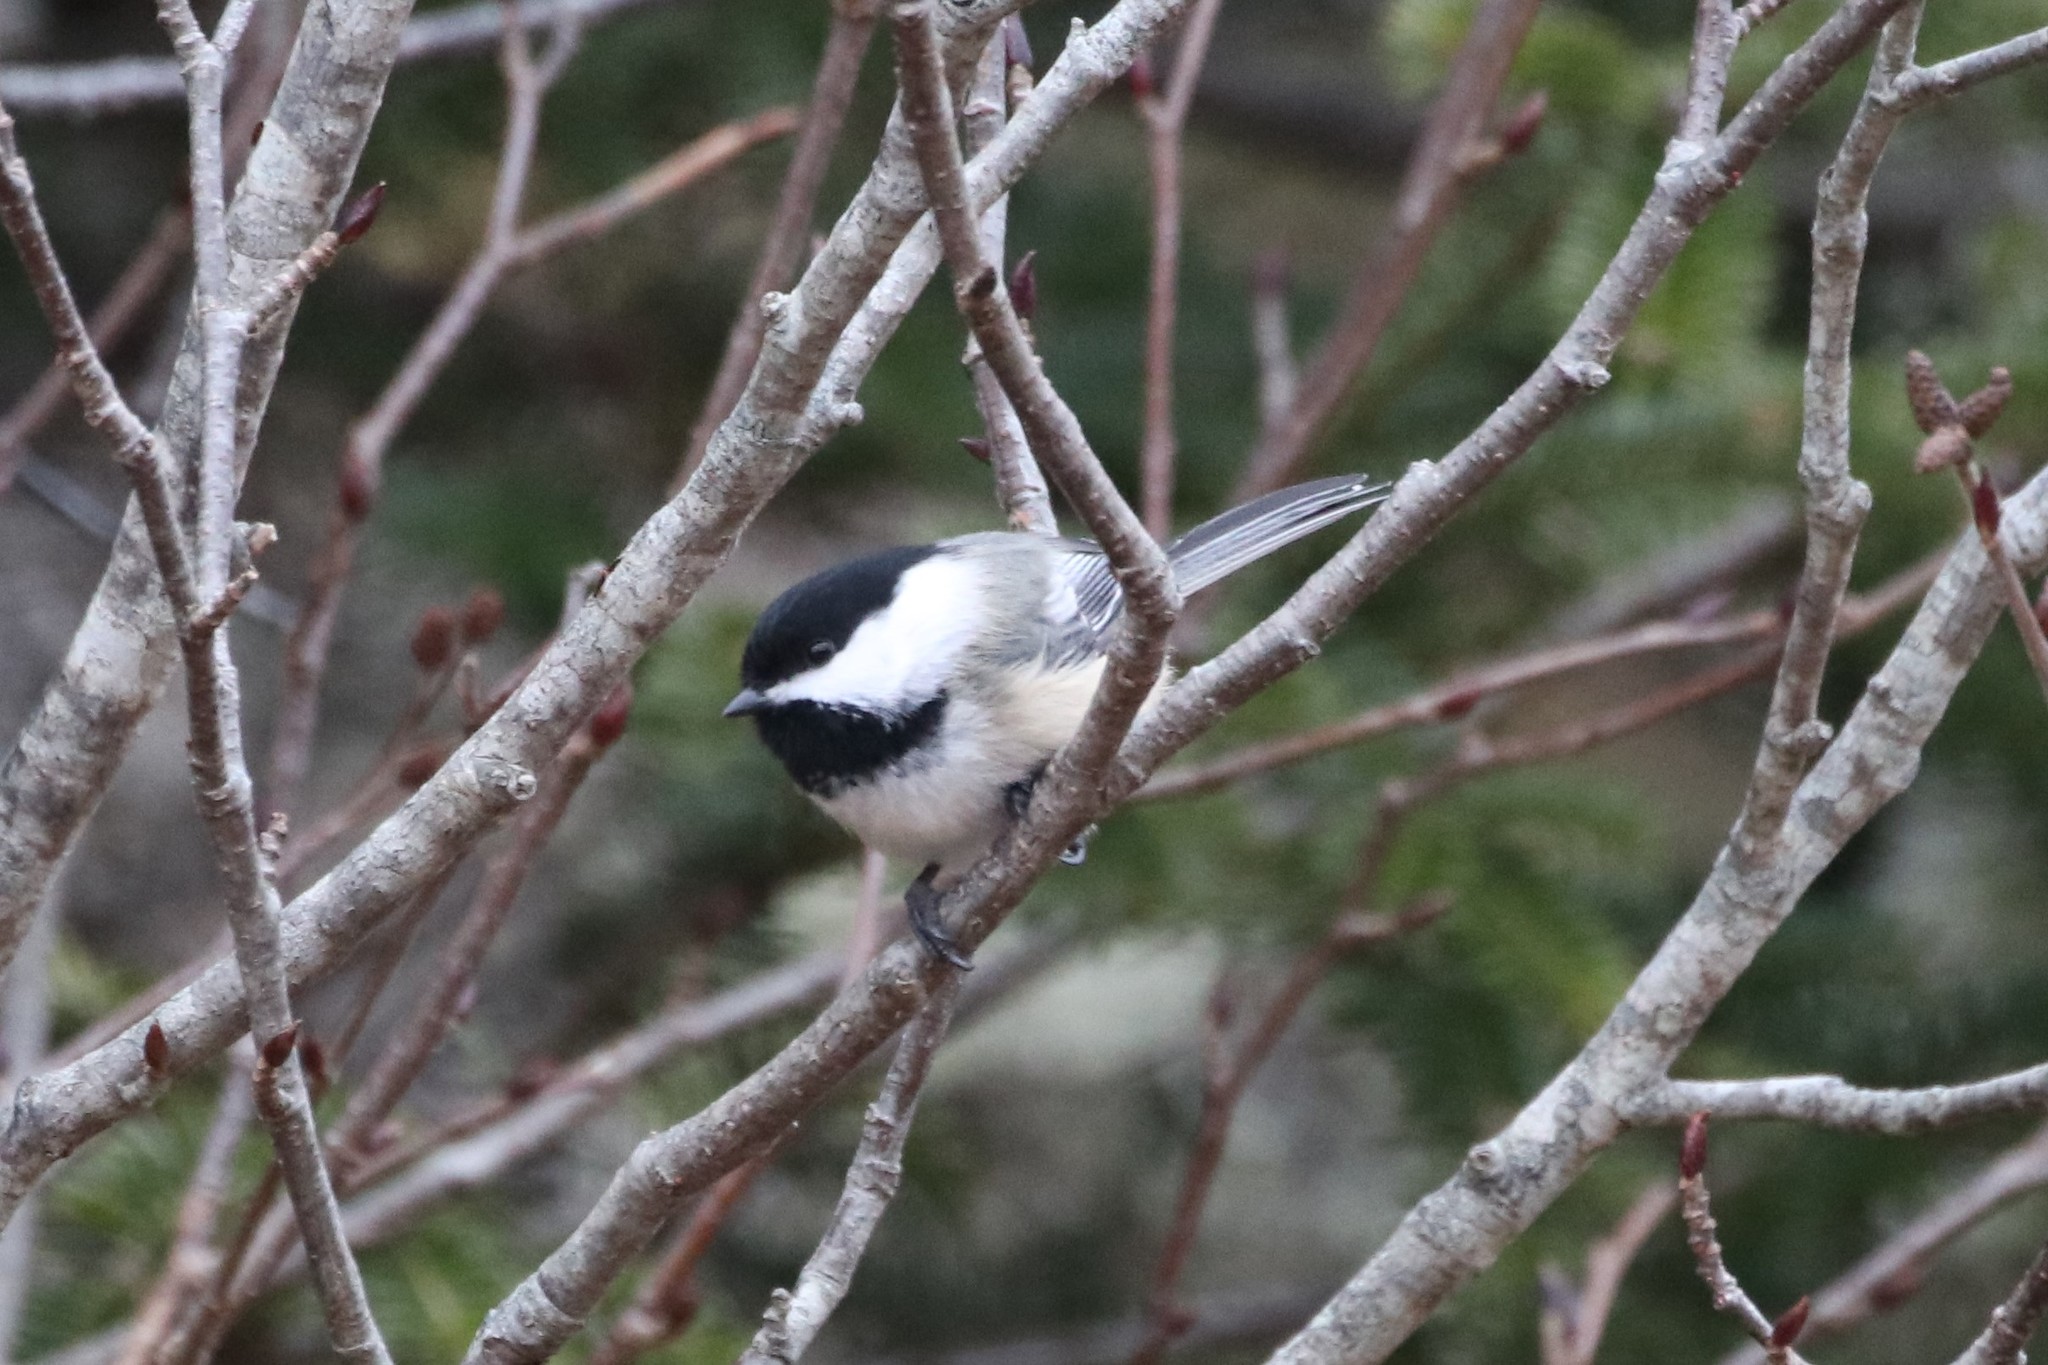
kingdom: Animalia
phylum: Chordata
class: Aves
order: Passeriformes
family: Paridae
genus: Poecile
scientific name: Poecile atricapillus
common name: Black-capped chickadee
